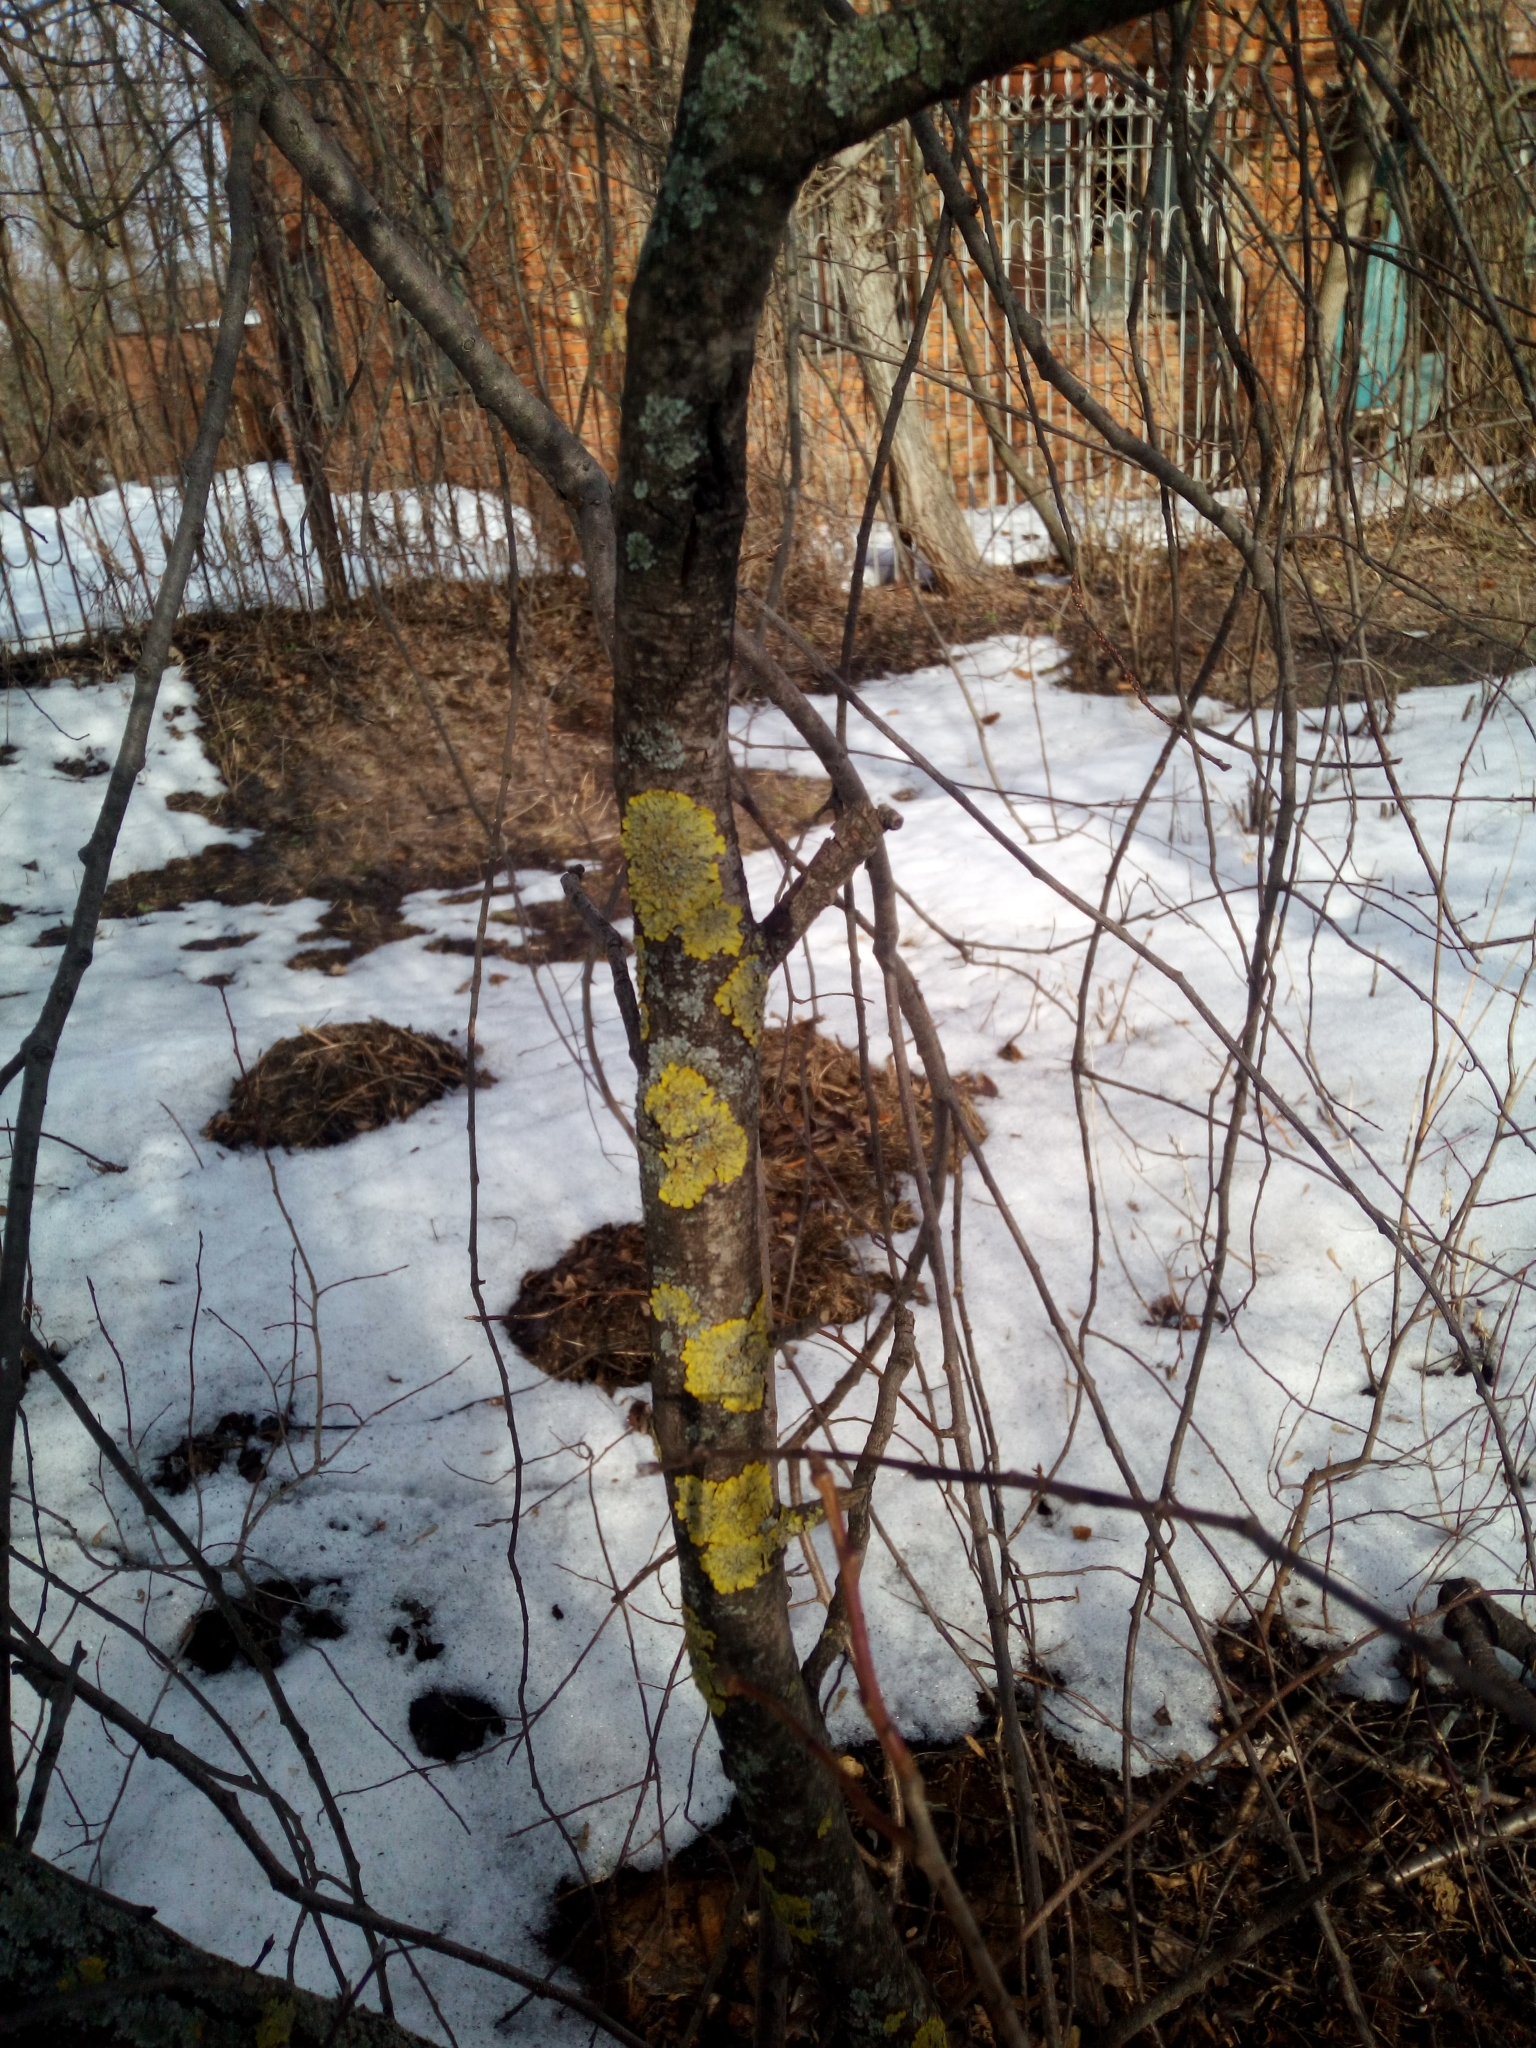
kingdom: Fungi
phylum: Ascomycota
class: Lecanoromycetes
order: Teloschistales
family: Teloschistaceae
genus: Xanthoria
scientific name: Xanthoria parietina
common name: Common orange lichen
